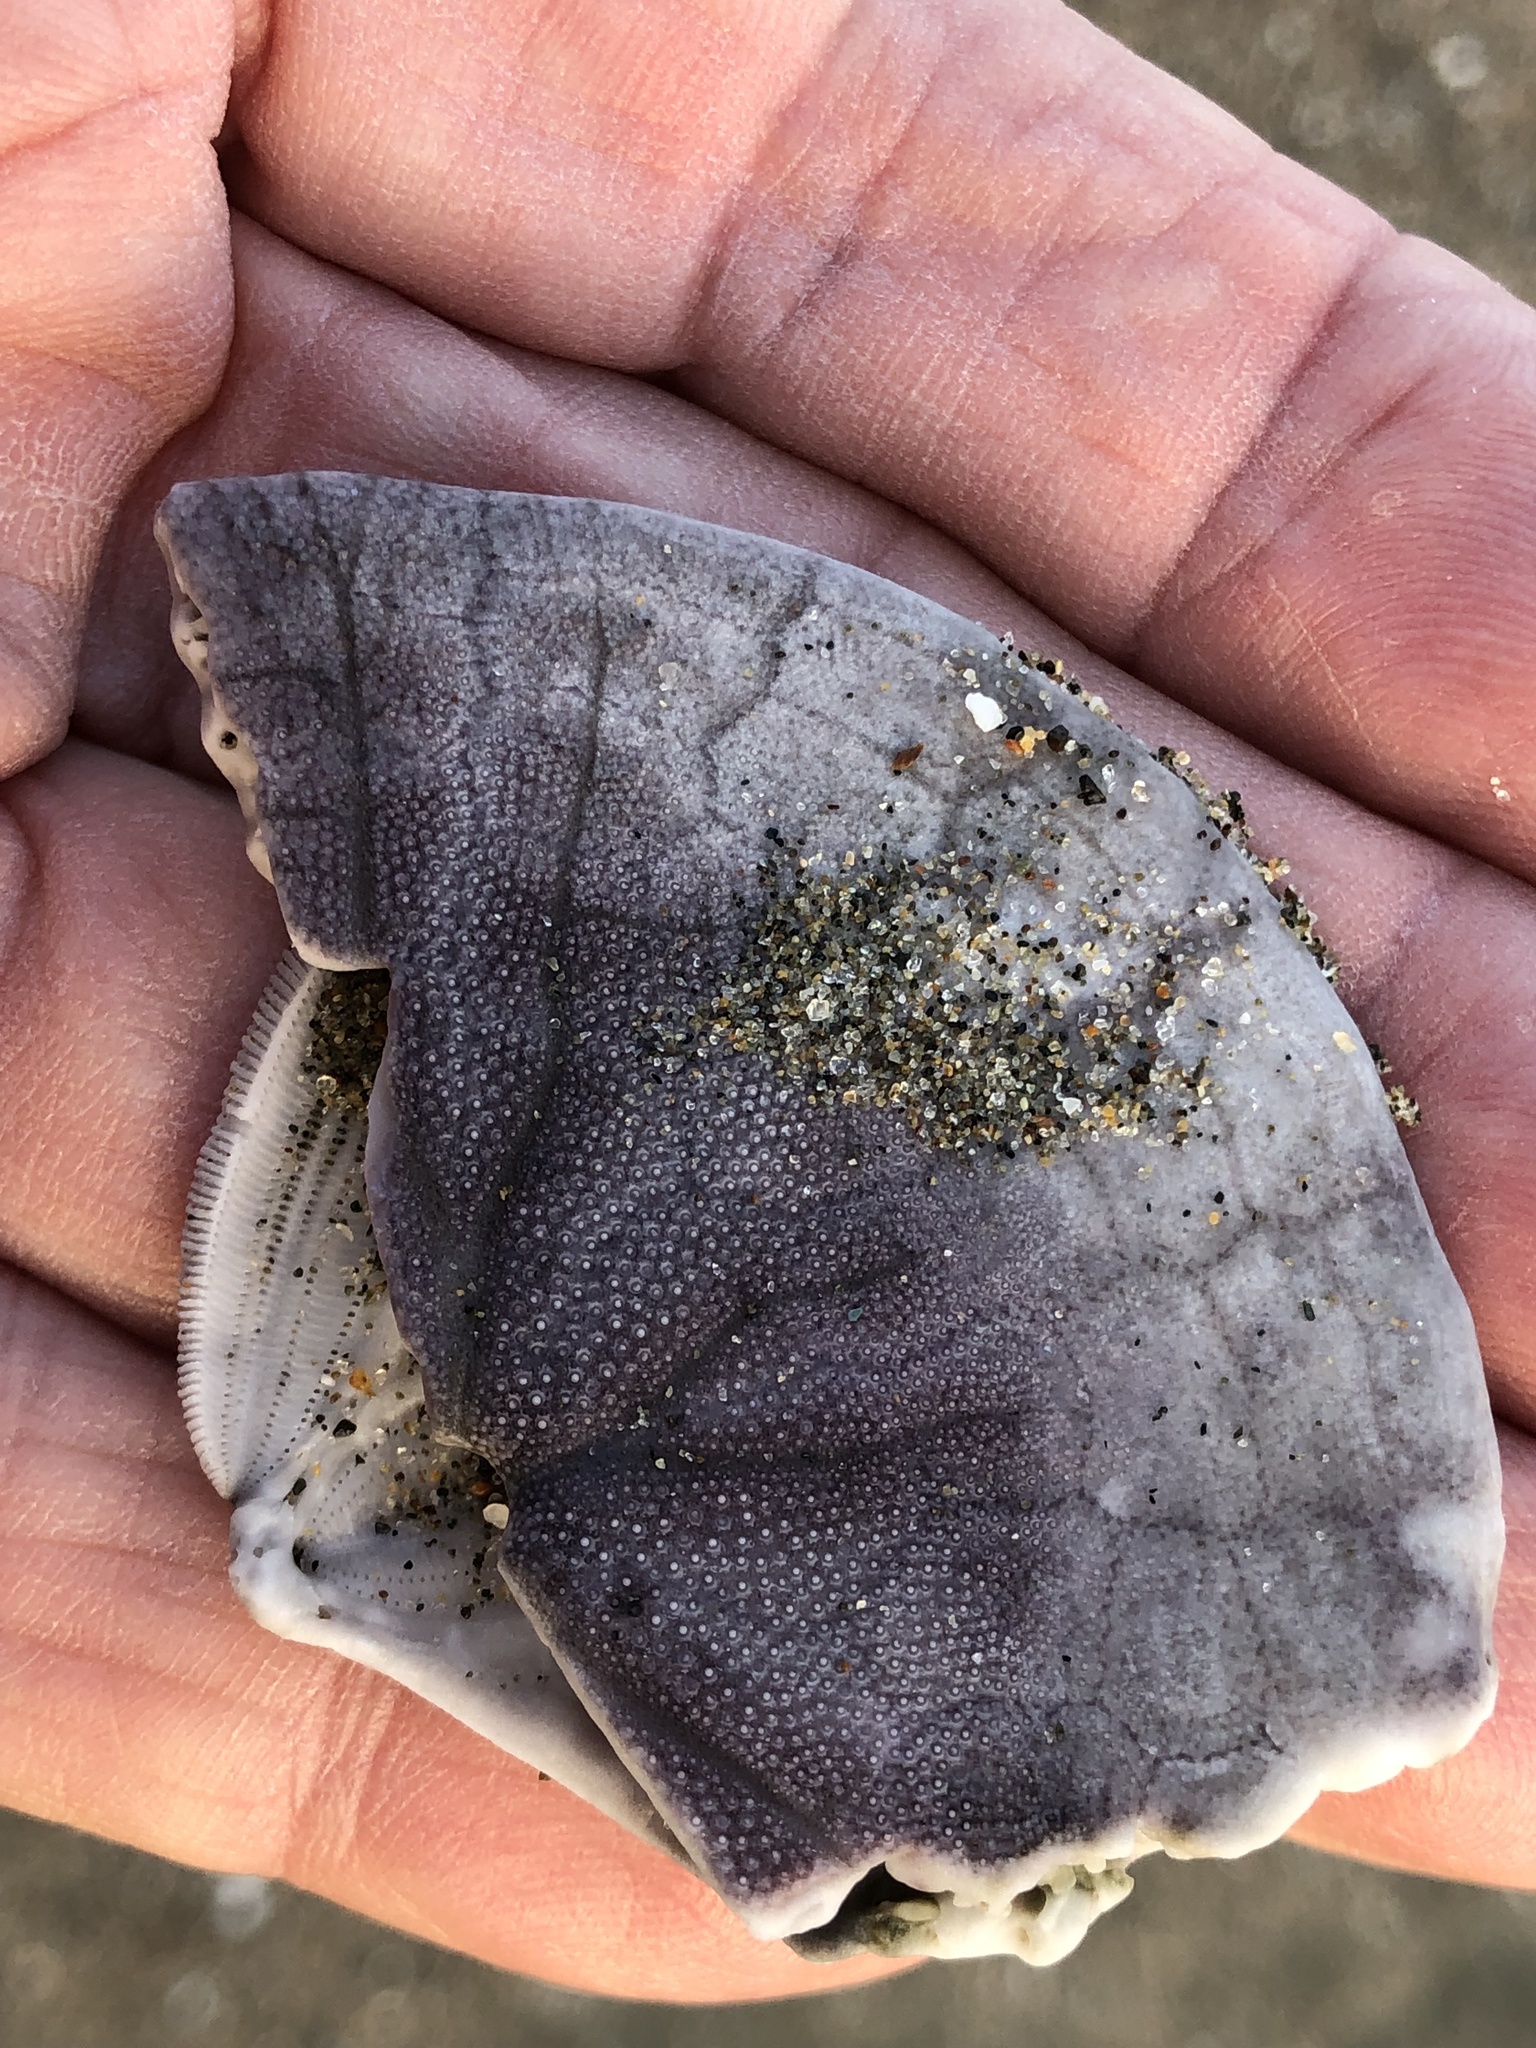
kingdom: Animalia
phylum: Echinodermata
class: Echinoidea
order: Echinolampadacea
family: Dendrasteridae
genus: Dendraster
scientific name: Dendraster excentricus
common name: Eccentric sand dollar sea urchin
